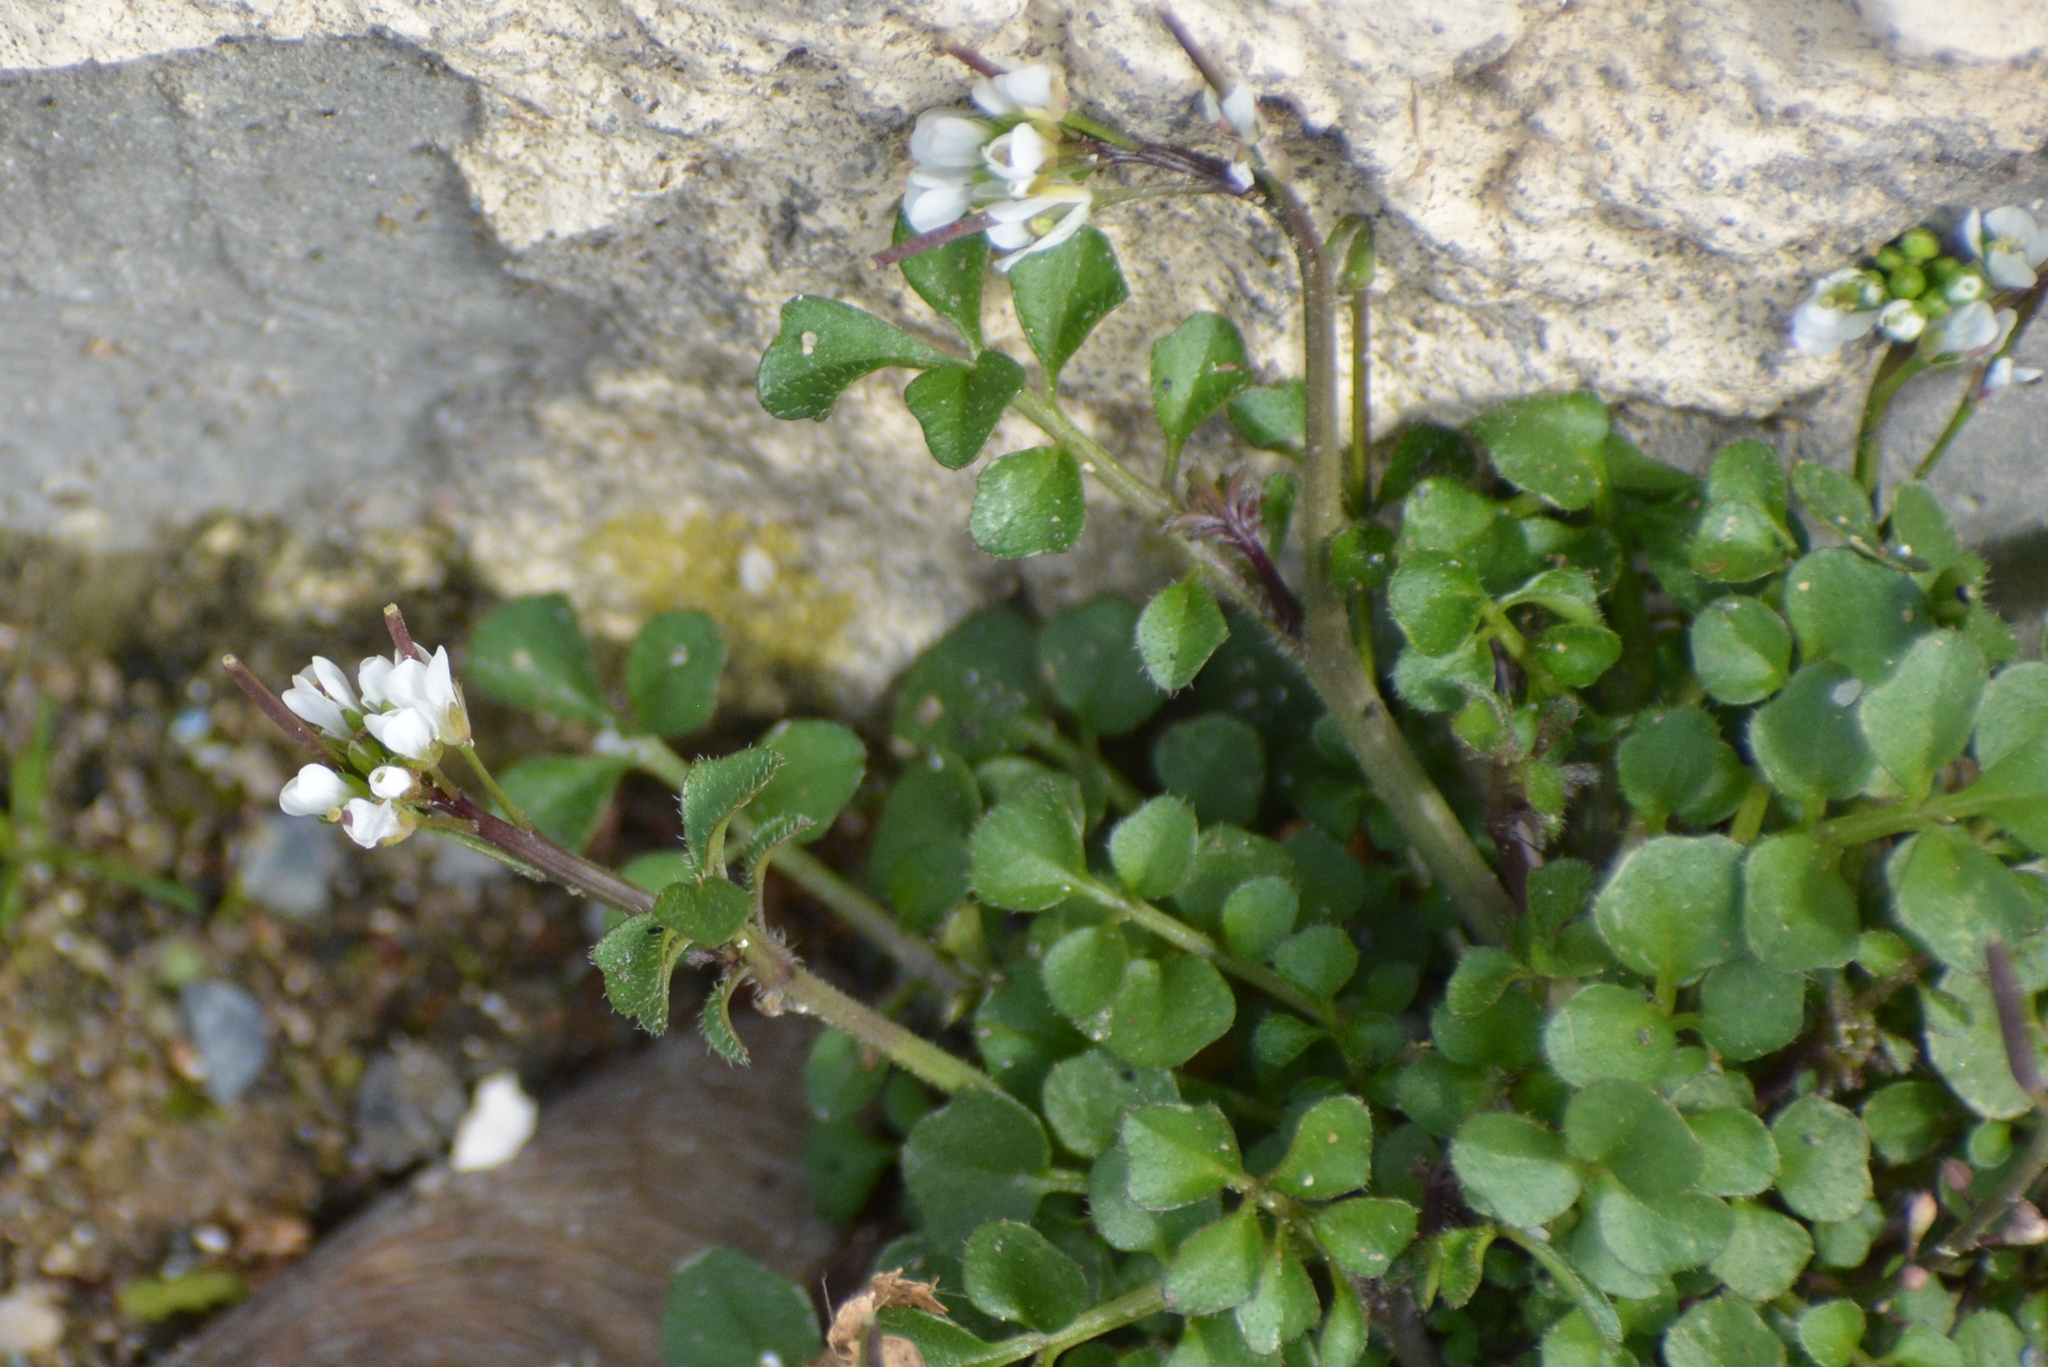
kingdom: Plantae
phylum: Tracheophyta
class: Magnoliopsida
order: Brassicales
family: Brassicaceae
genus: Cardamine
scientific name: Cardamine hirsuta
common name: Hairy bittercress
